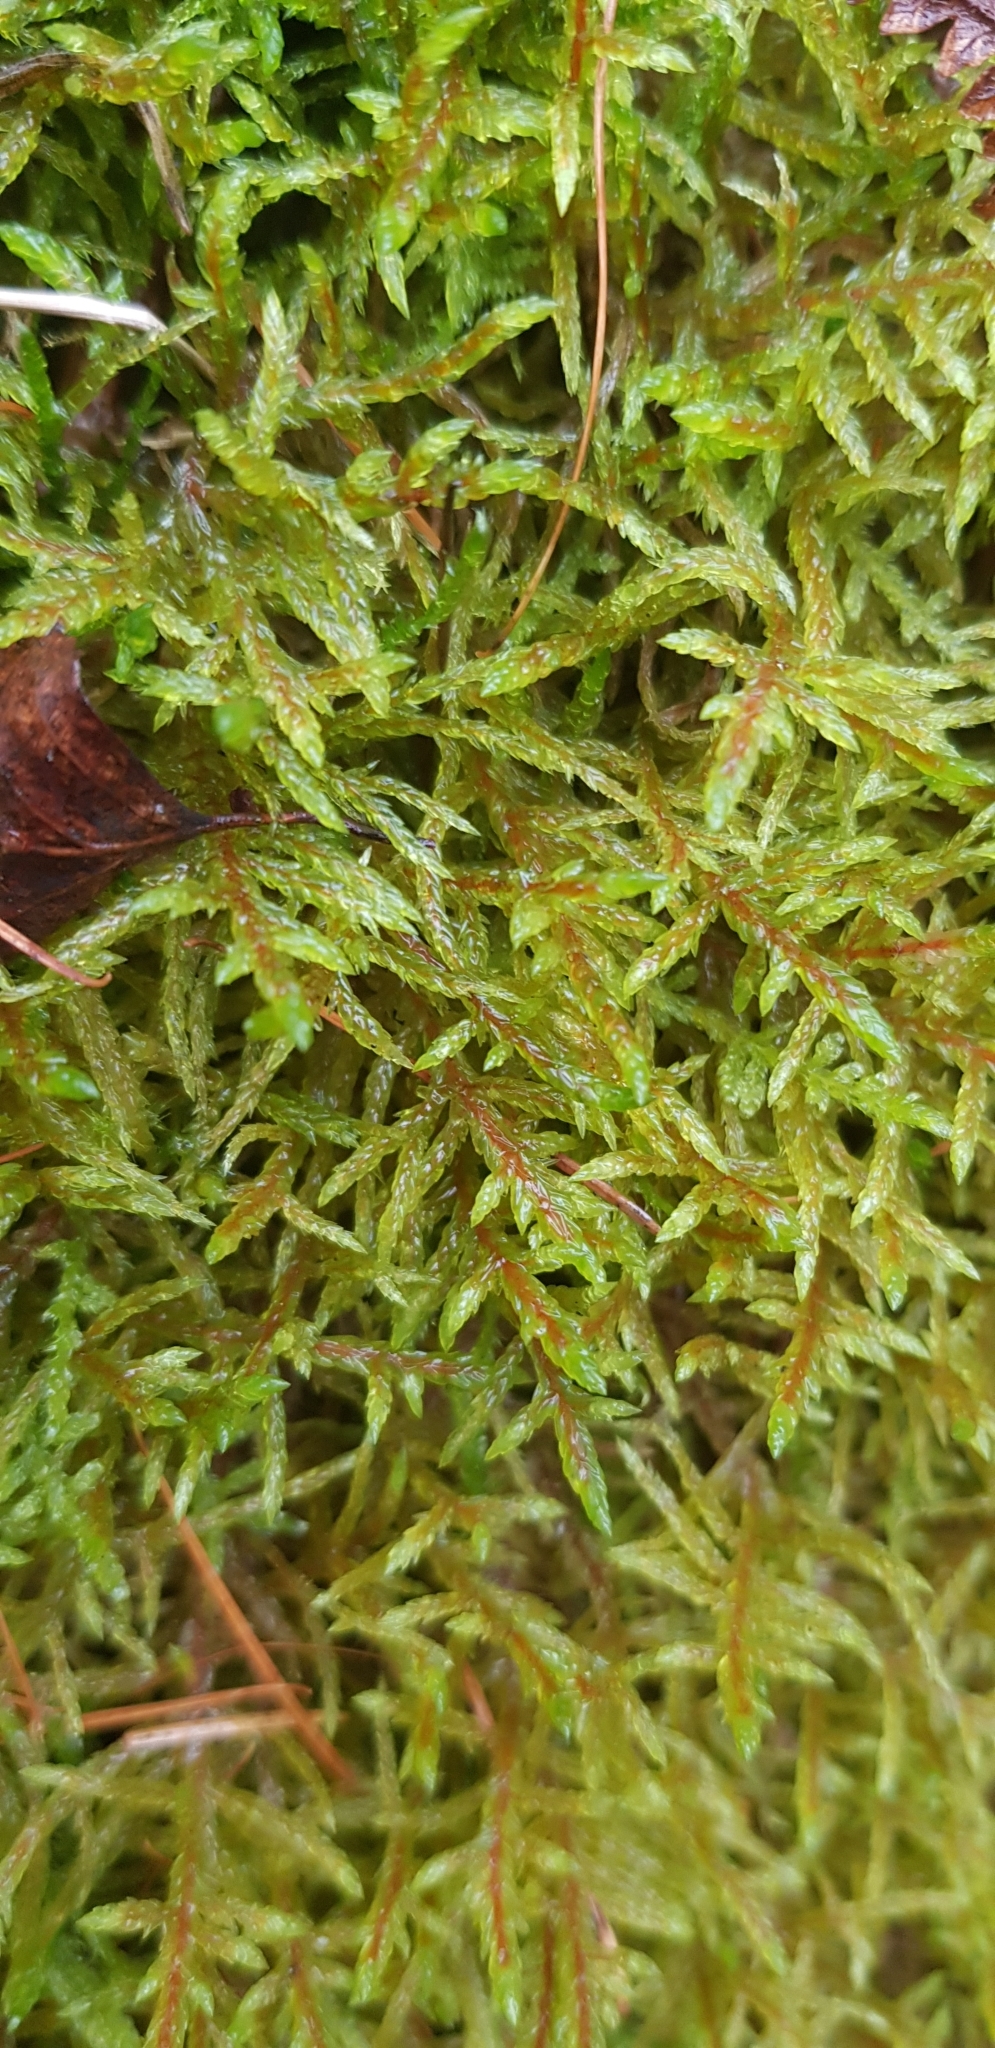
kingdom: Plantae
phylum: Bryophyta
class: Bryopsida
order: Hypnales
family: Hylocomiaceae
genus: Pleurozium
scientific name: Pleurozium schreberi
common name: Red-stemmed feather moss
